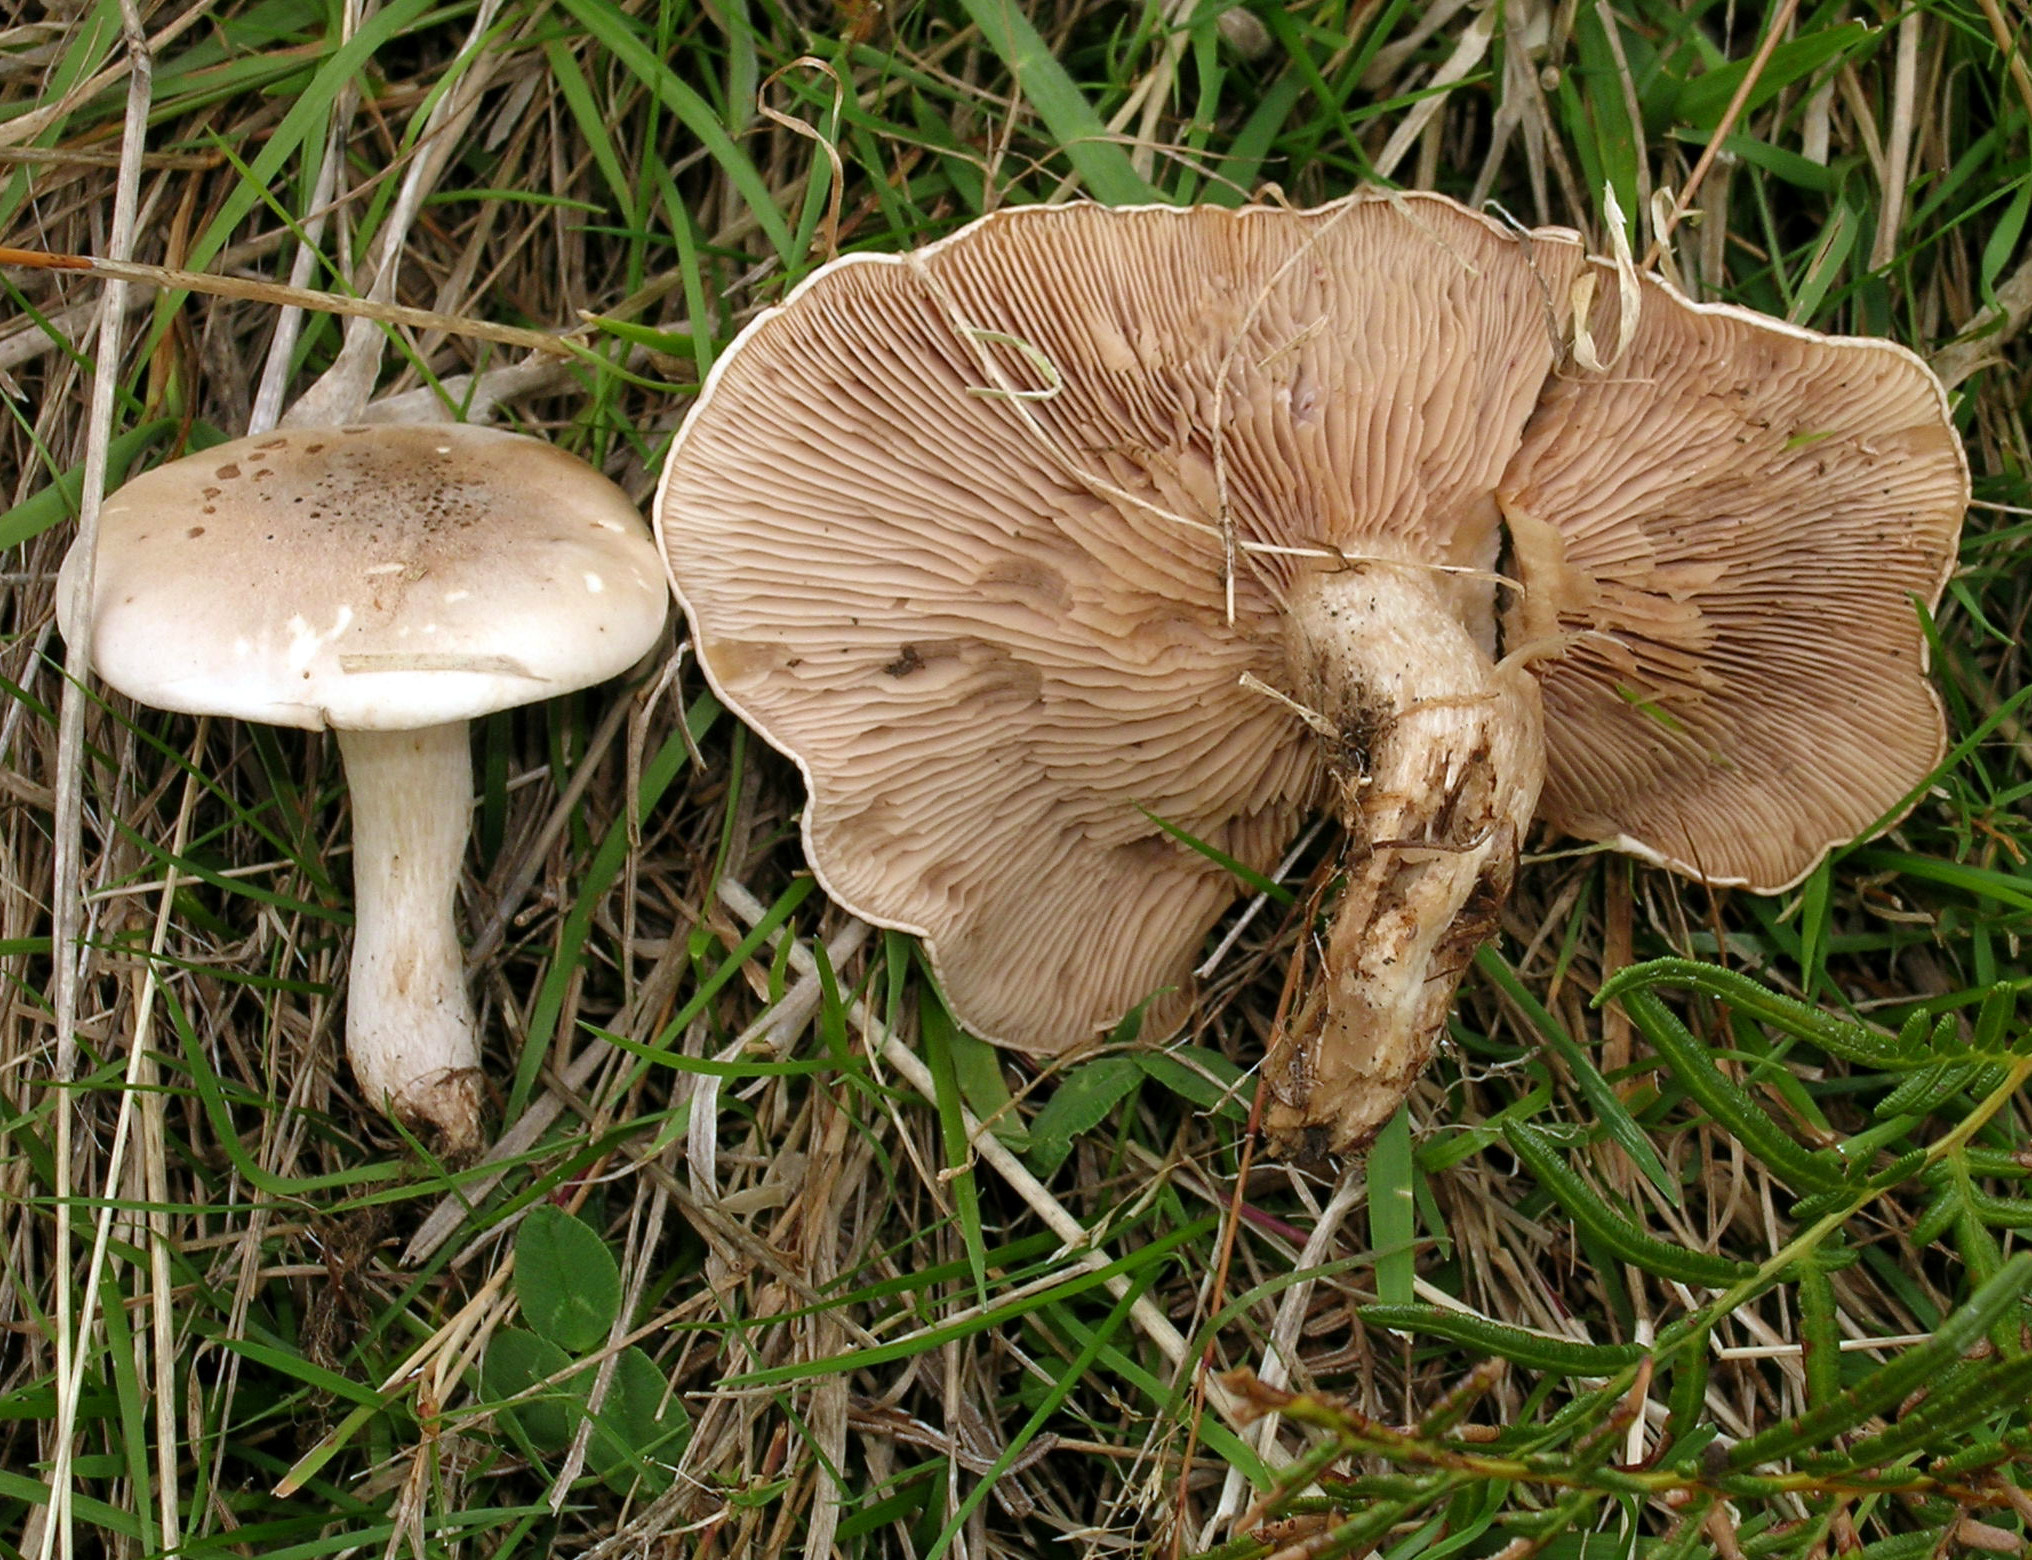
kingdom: Fungi
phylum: Basidiomycota
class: Agaricomycetes
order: Agaricales
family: Tricholomataceae
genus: Lepista
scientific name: Lepista luscina
